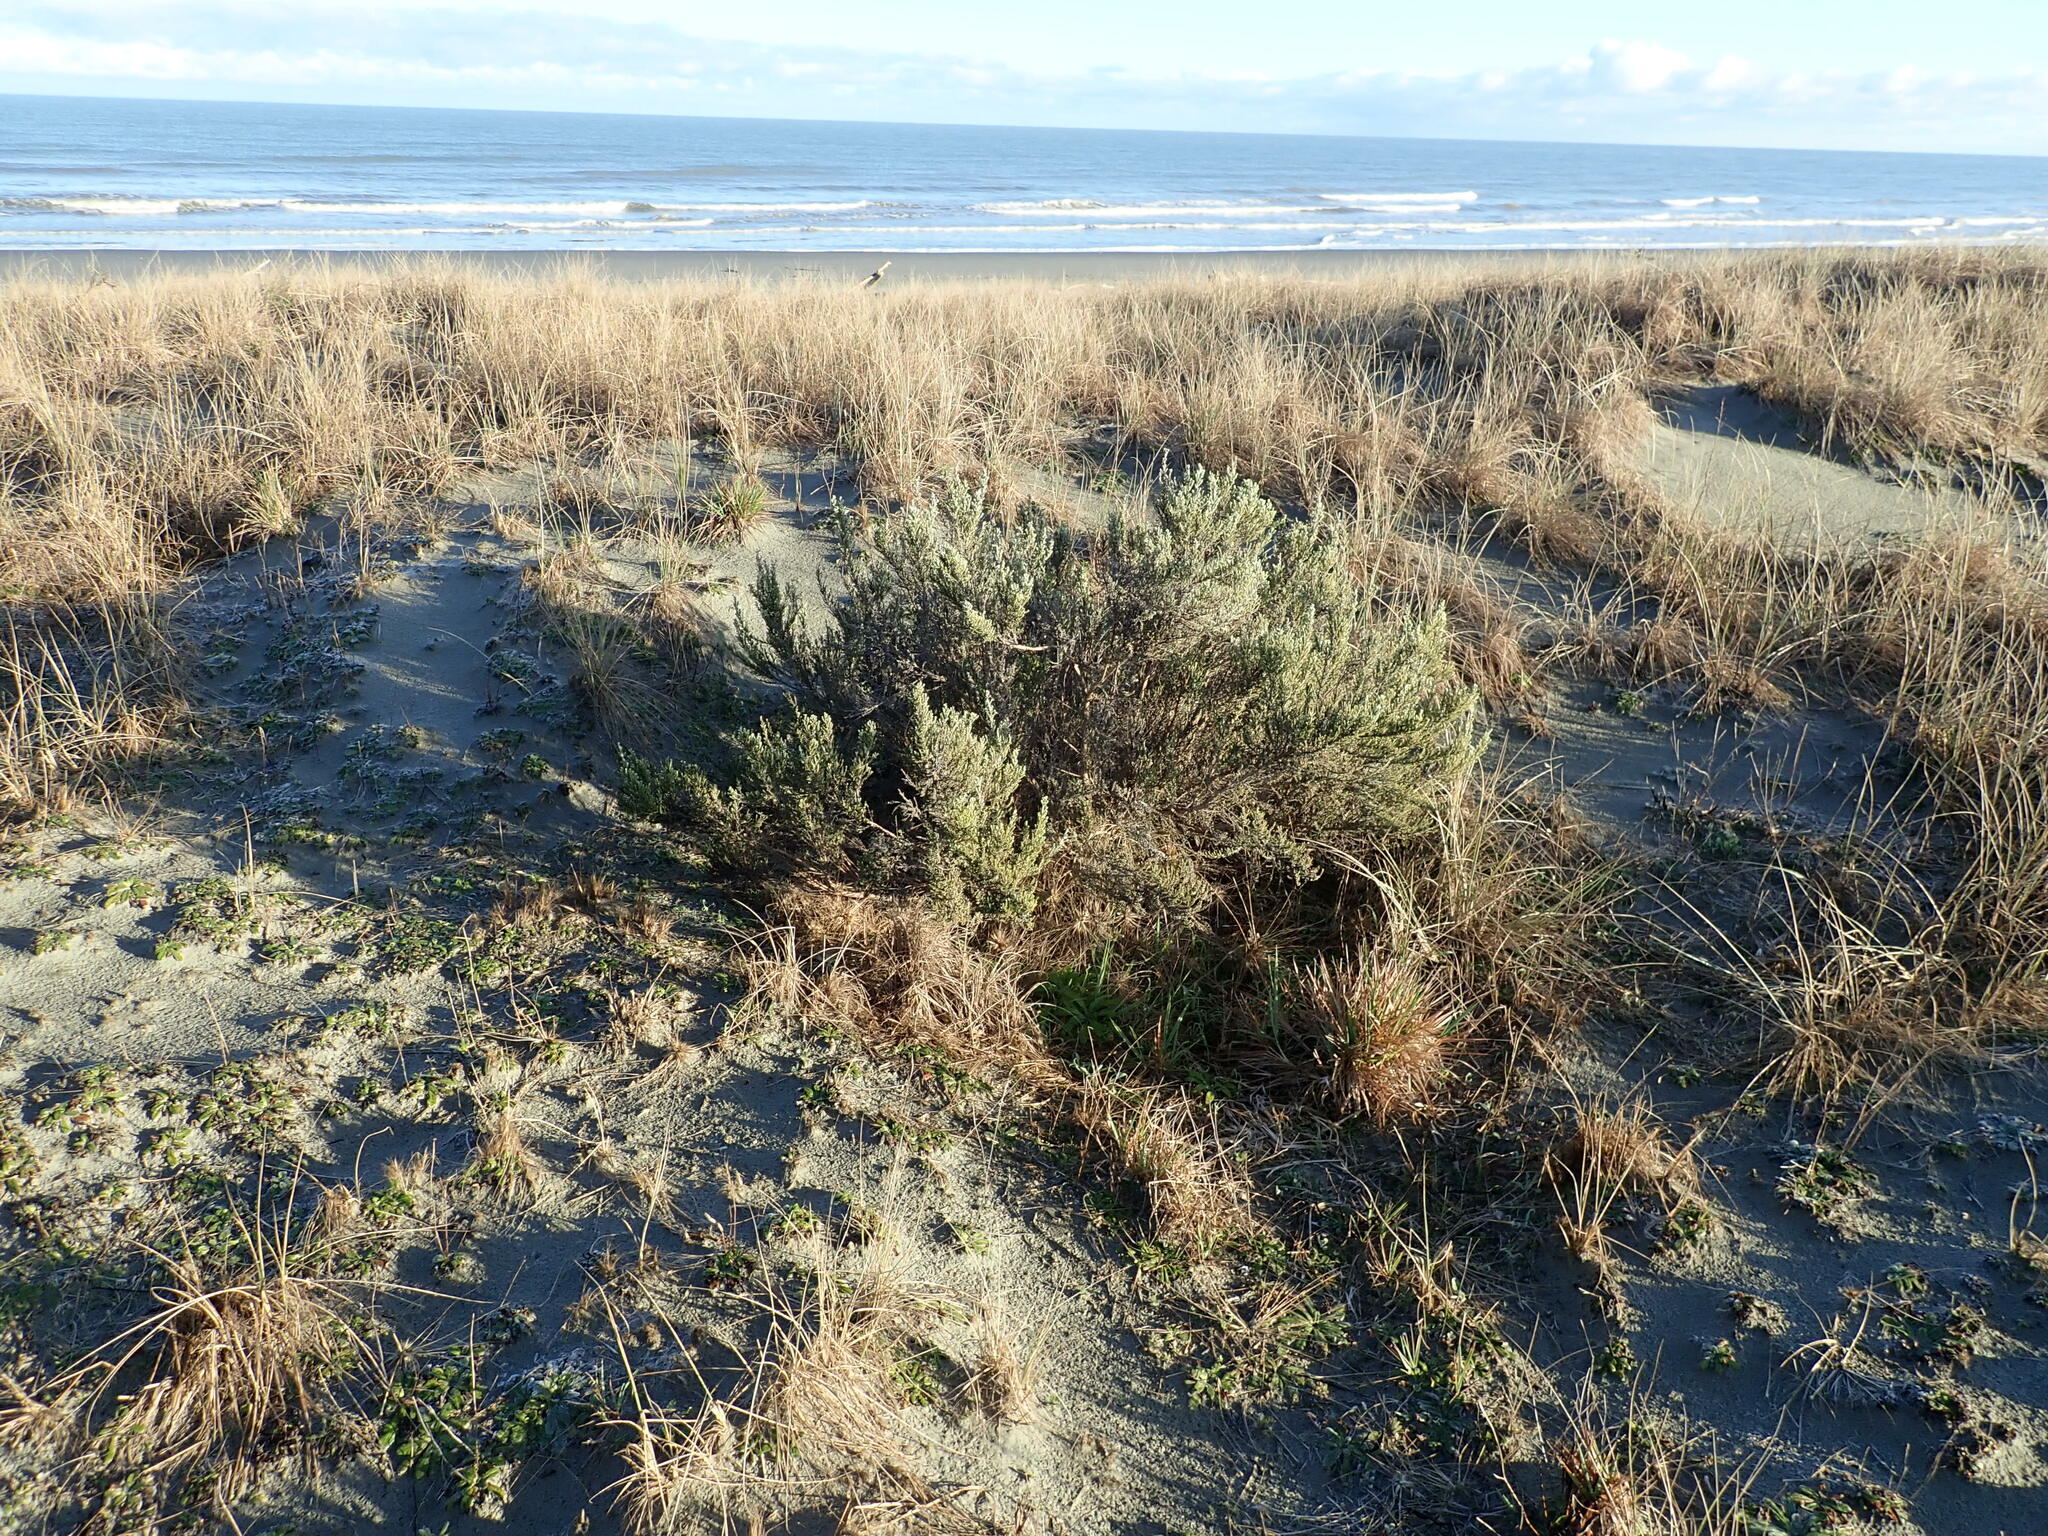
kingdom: Plantae
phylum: Tracheophyta
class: Magnoliopsida
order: Asterales
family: Asteraceae
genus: Ozothamnus
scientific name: Ozothamnus leptophyllus
